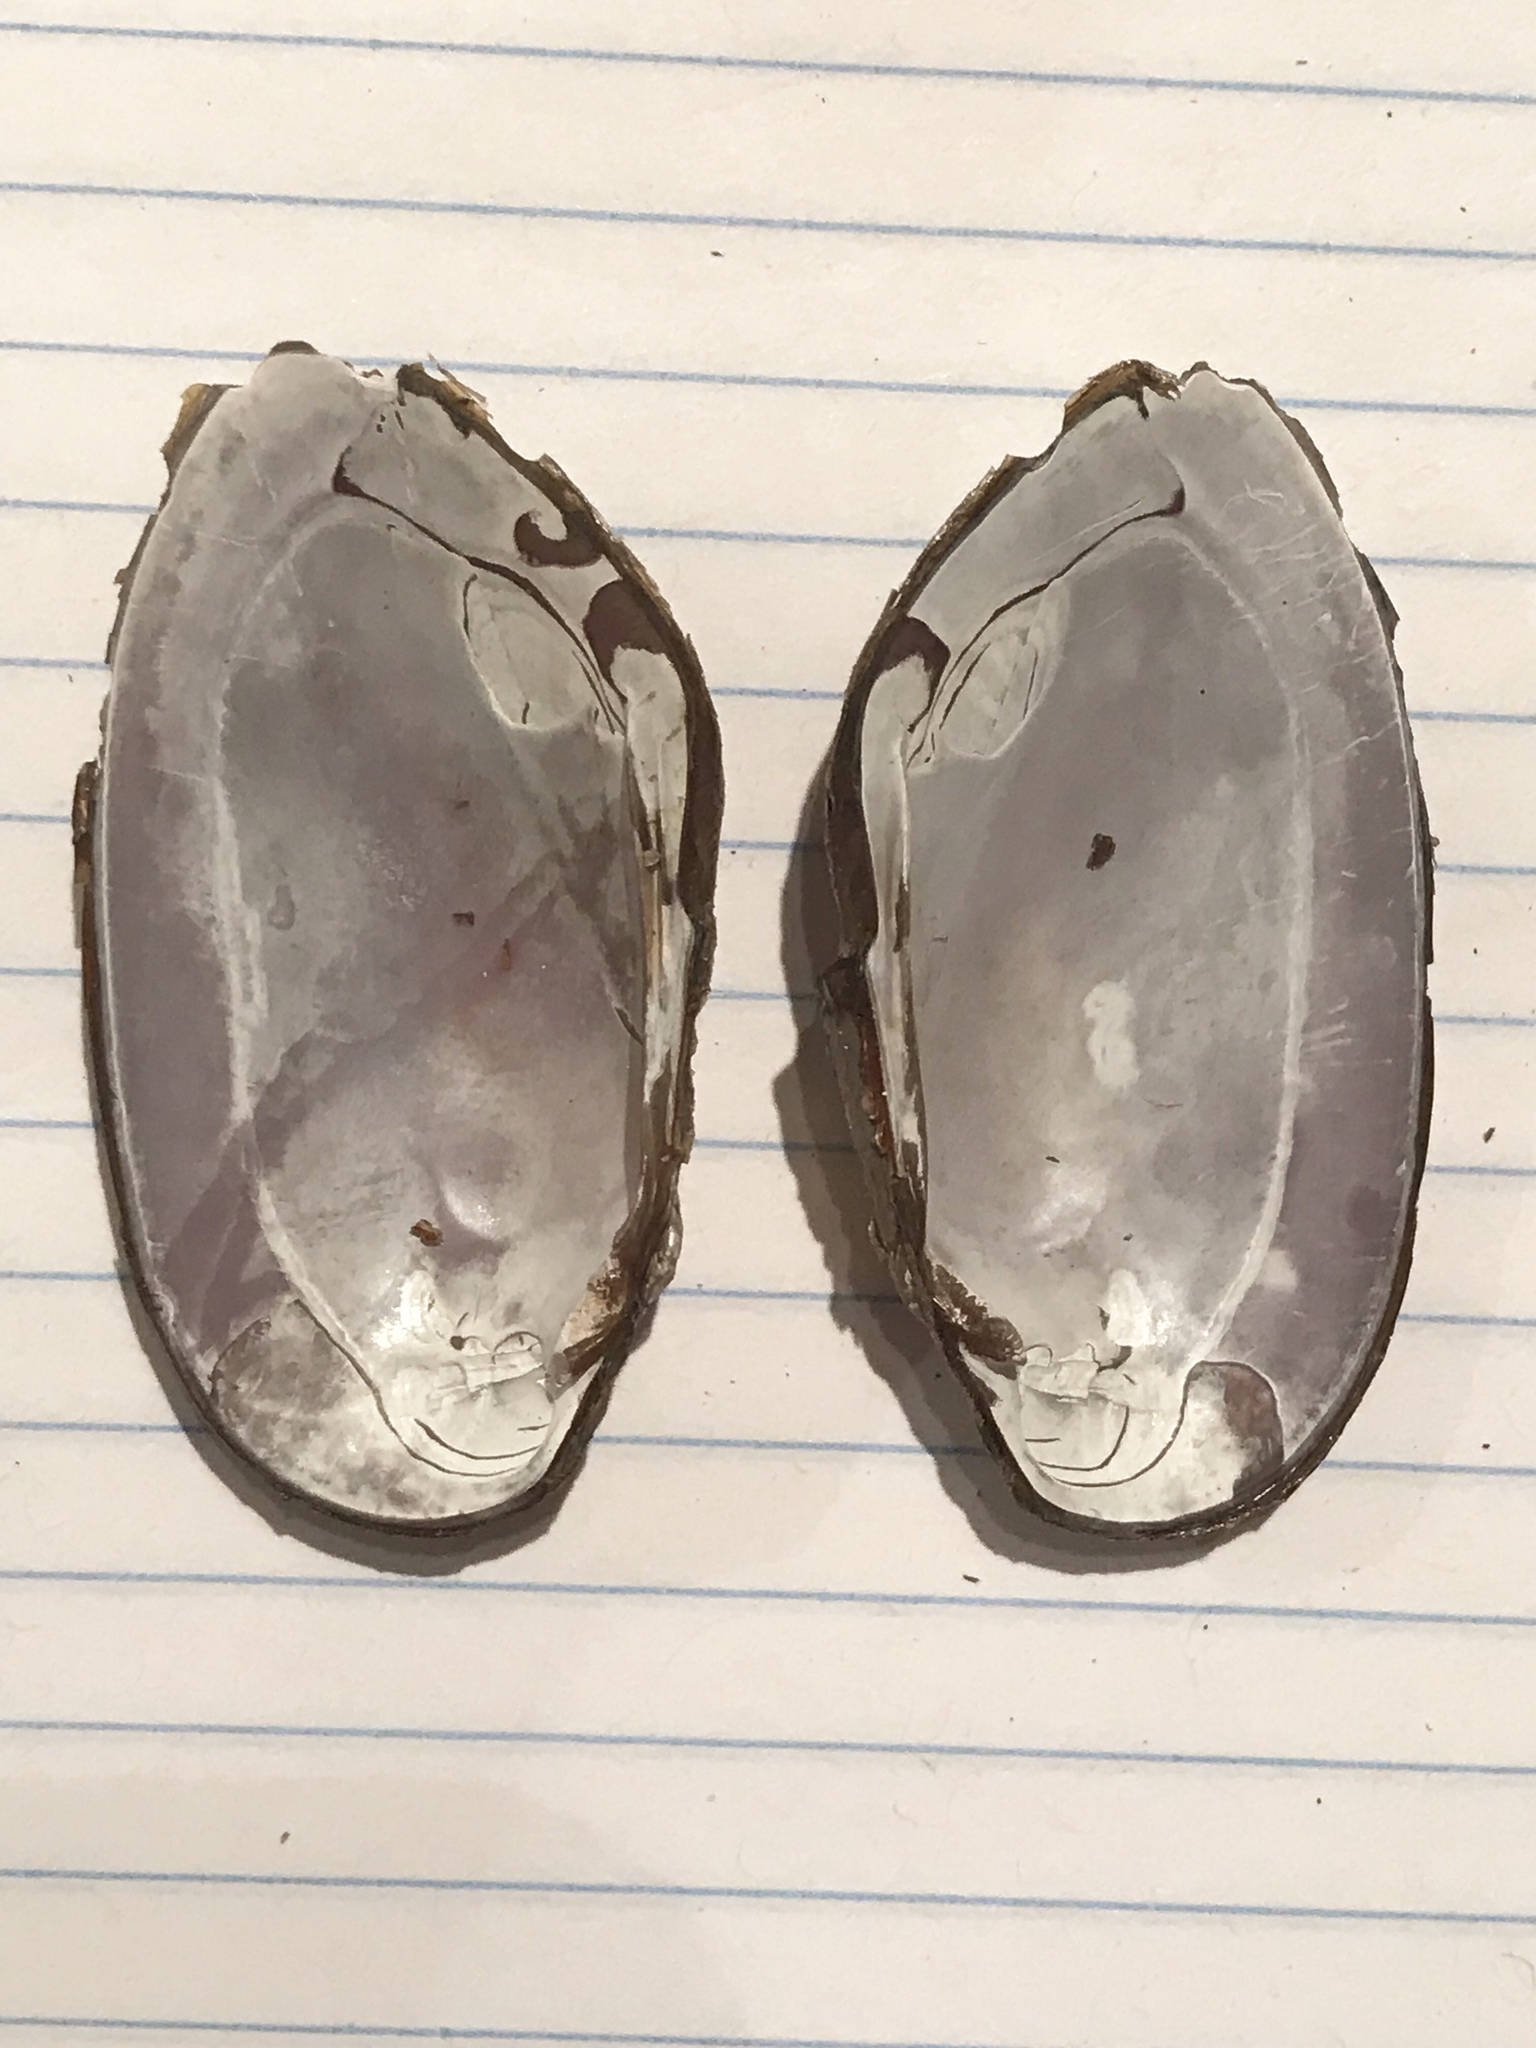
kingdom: Animalia
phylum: Mollusca
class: Bivalvia
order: Unionida
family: Unionidae
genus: Elliptio
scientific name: Elliptio complanata
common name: Eastern elliptio
